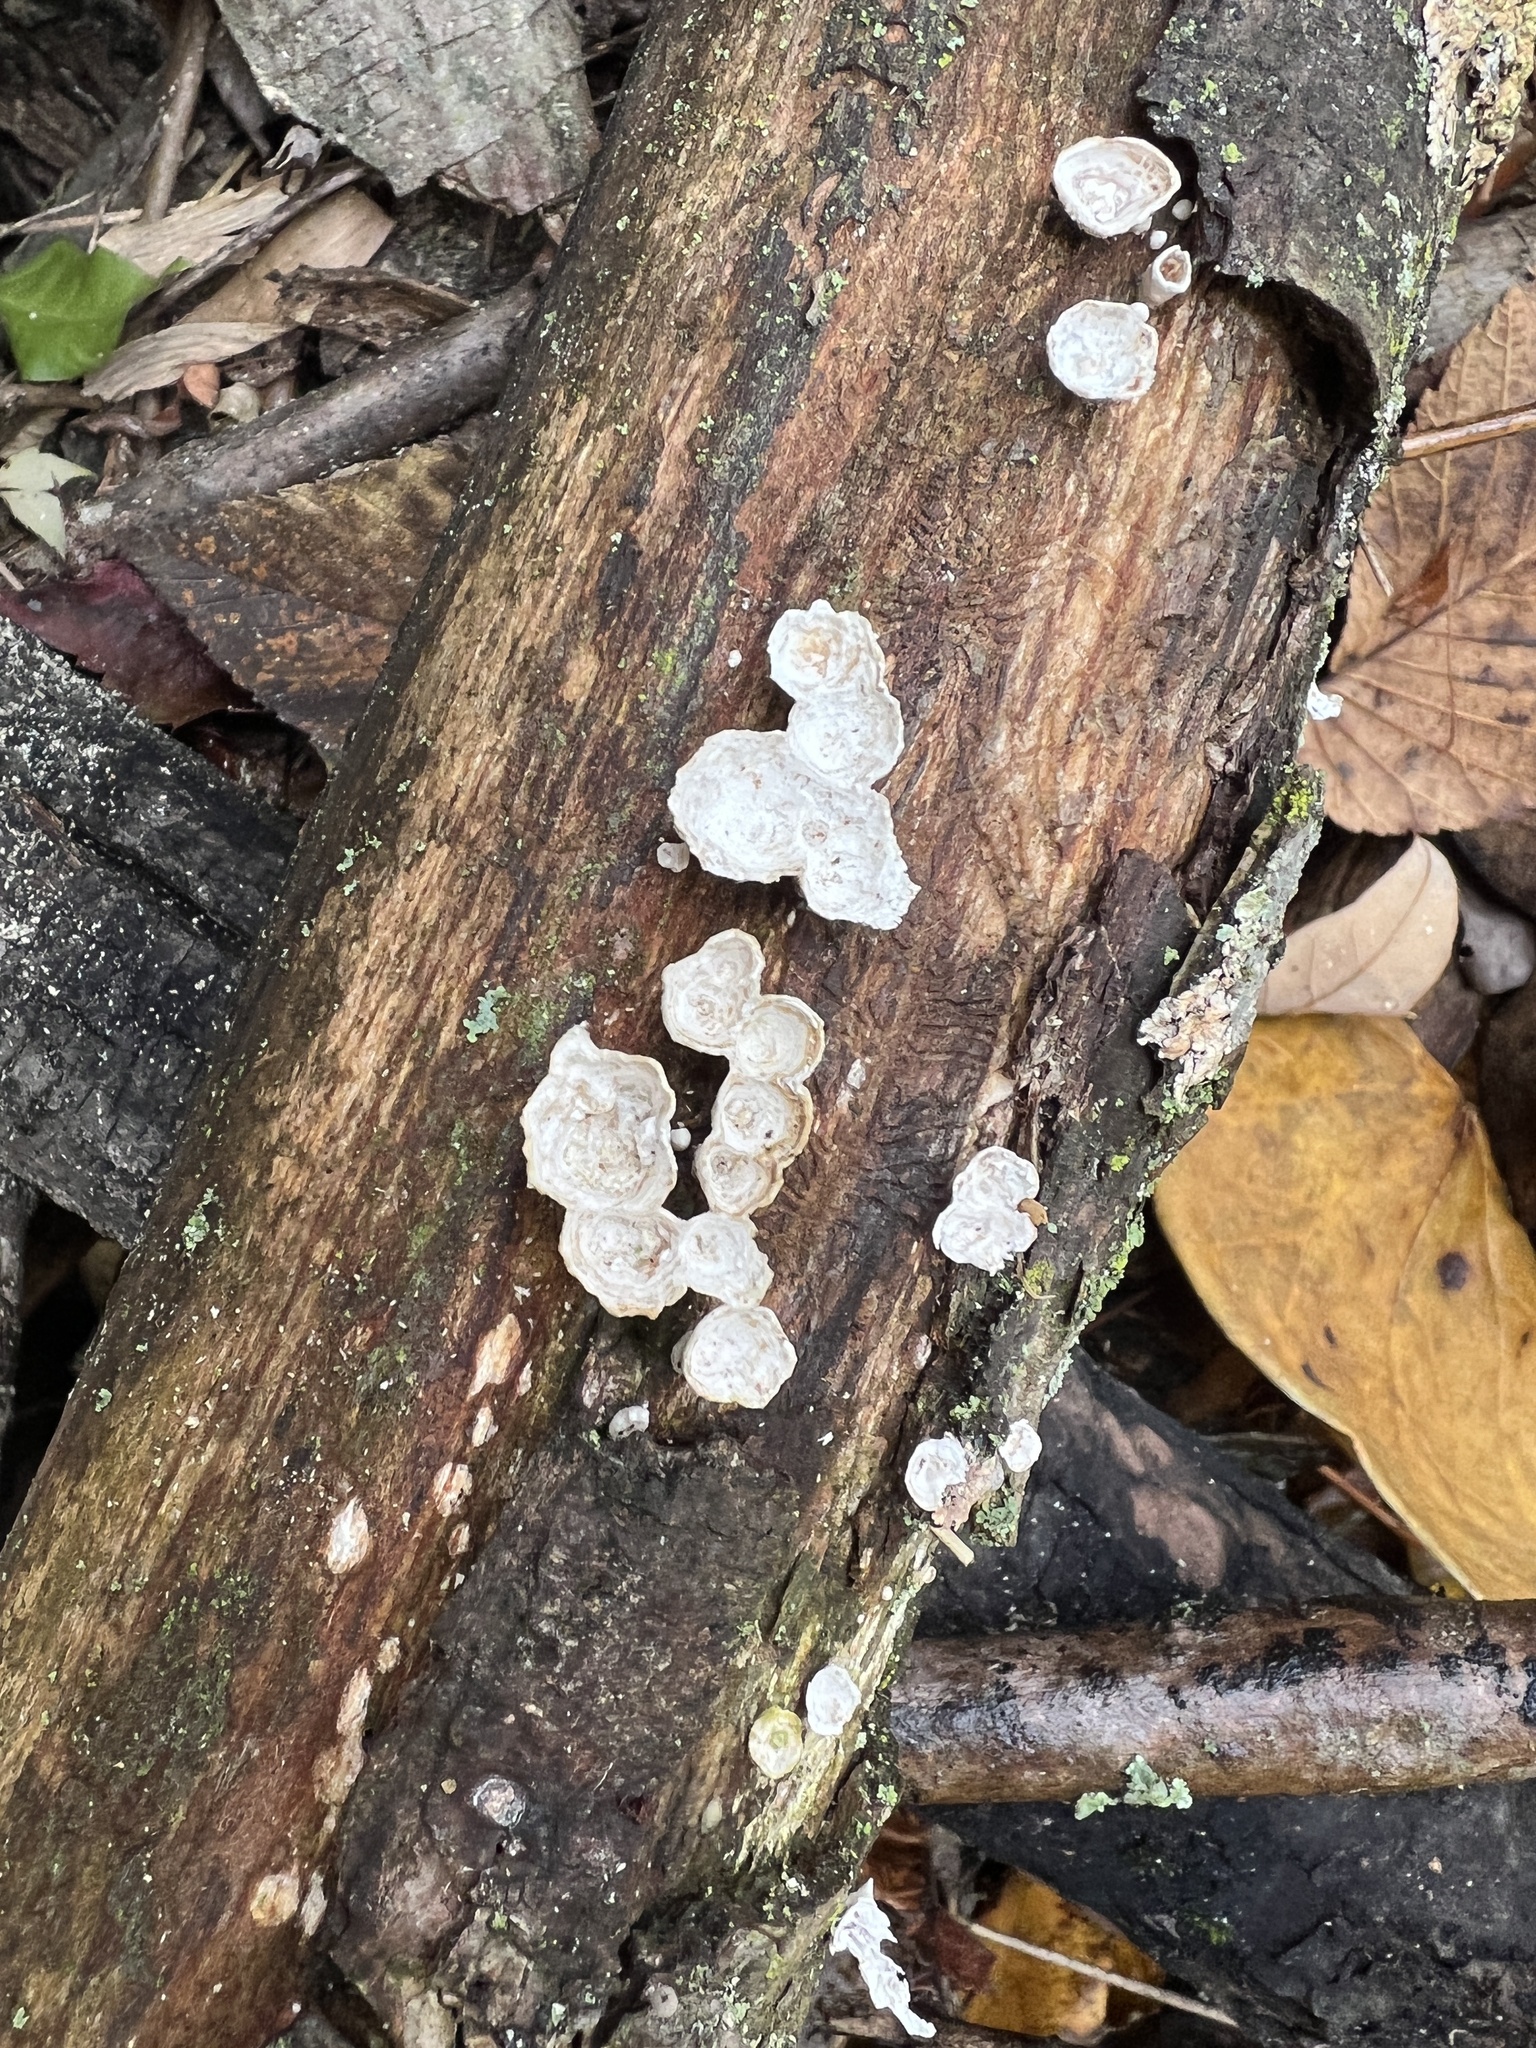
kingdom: Fungi
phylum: Basidiomycota
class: Agaricomycetes
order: Polyporales
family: Polyporaceae
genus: Poronidulus
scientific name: Poronidulus conchifer
